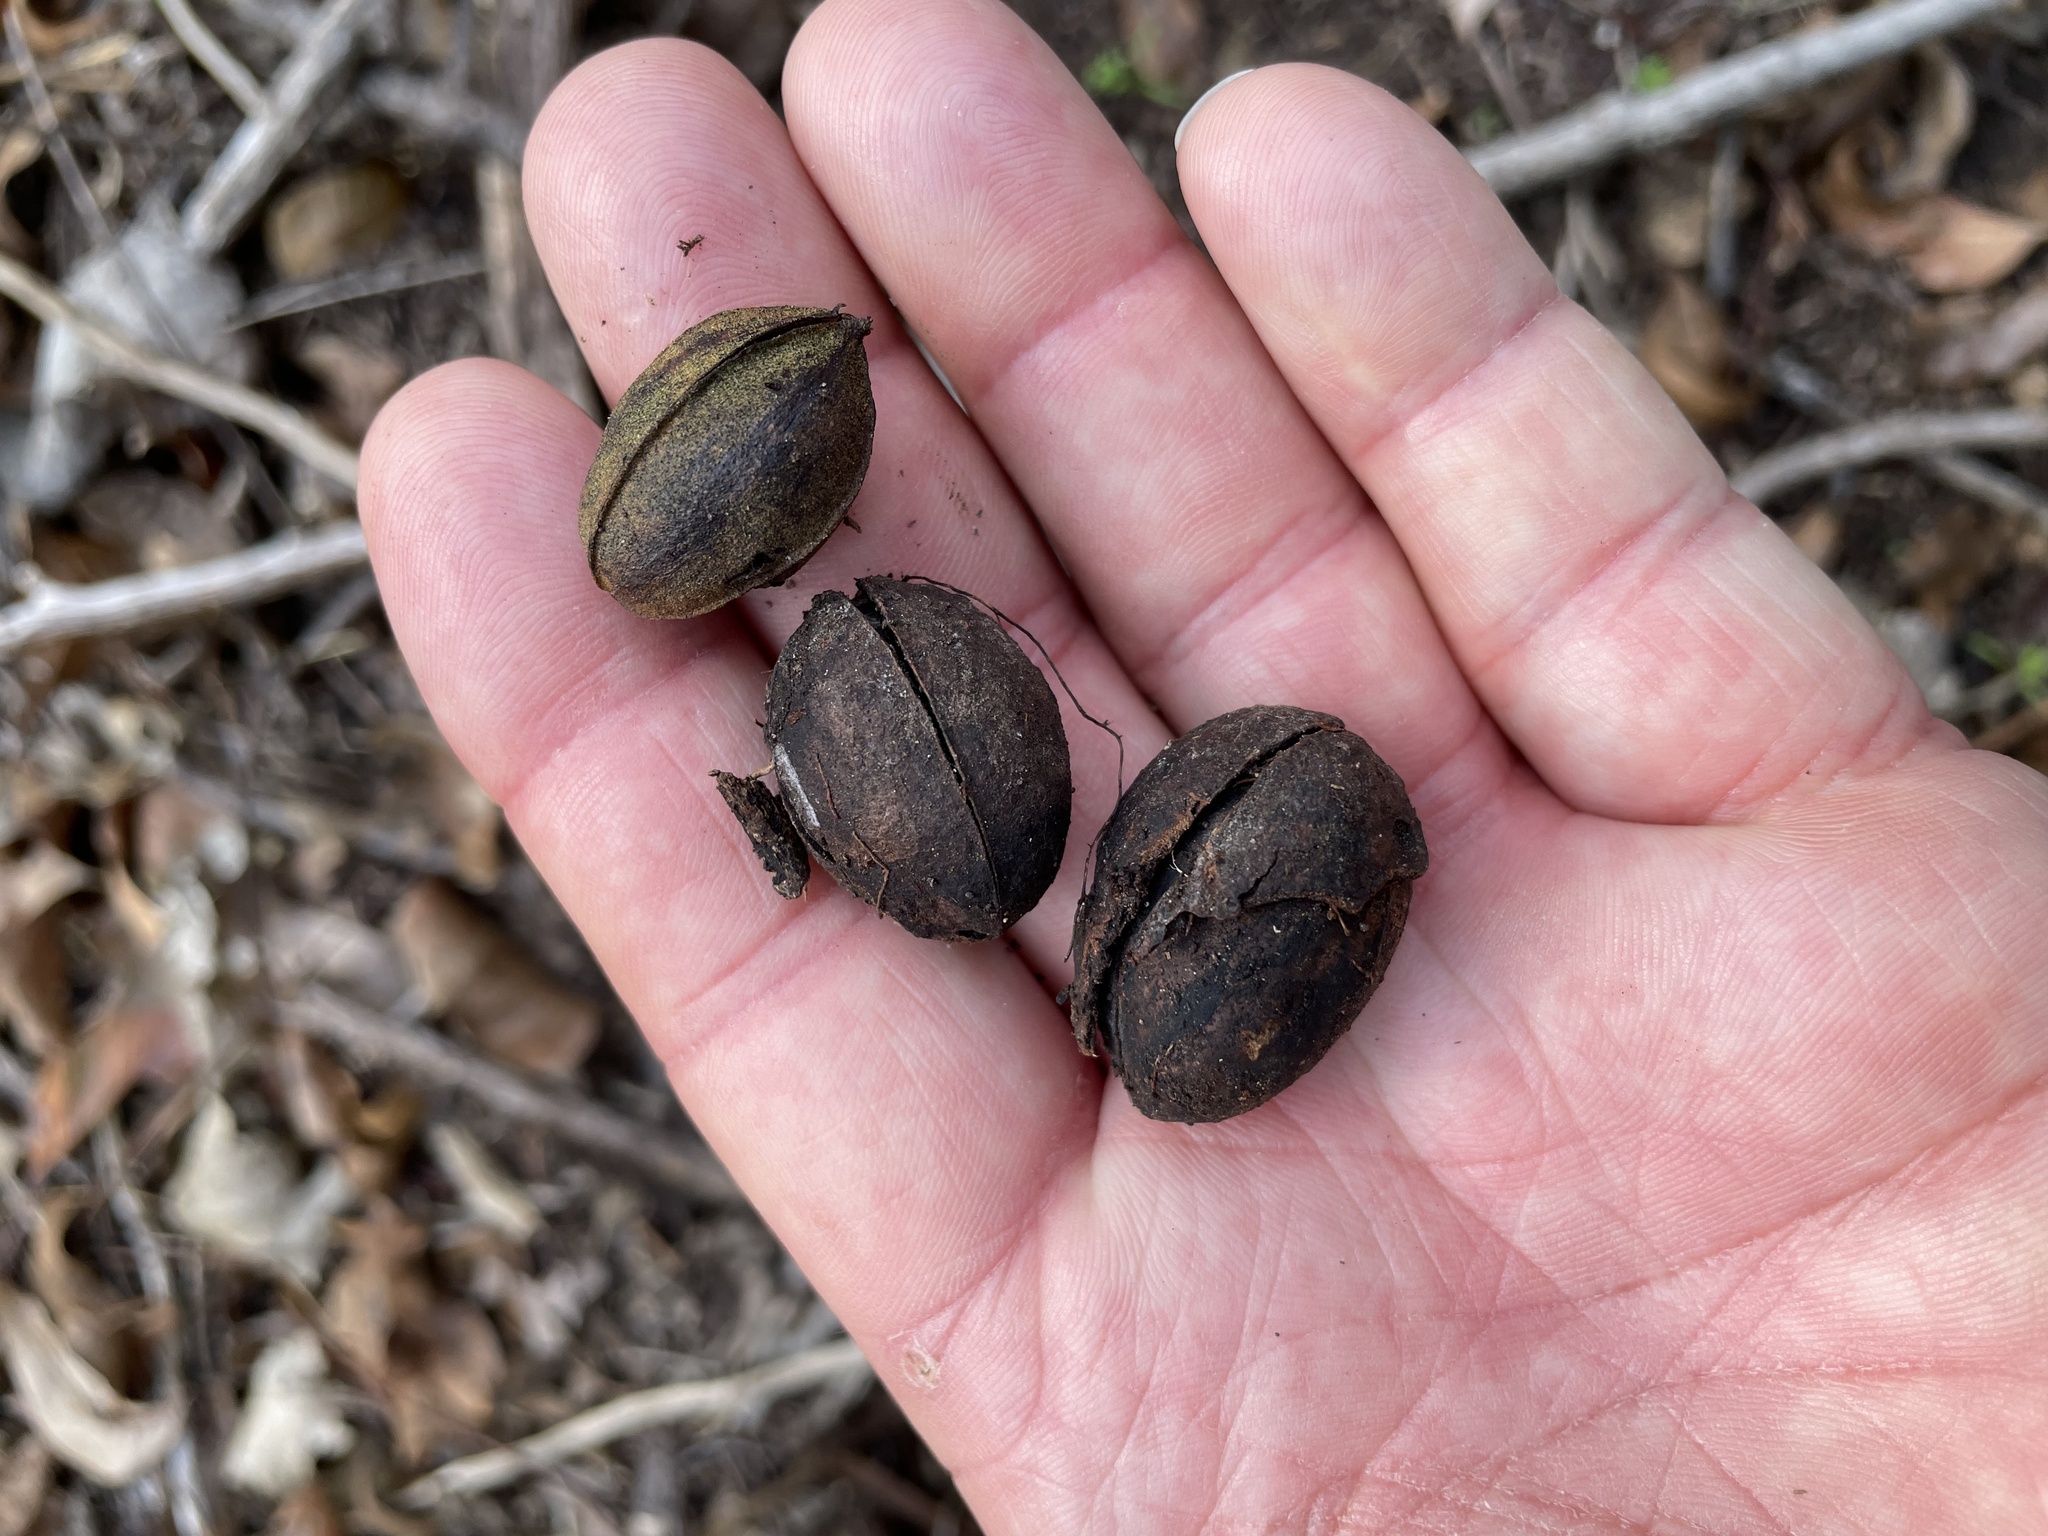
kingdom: Plantae
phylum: Tracheophyta
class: Magnoliopsida
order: Fagales
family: Juglandaceae
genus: Carya
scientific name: Carya illinoinensis
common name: Pecan
